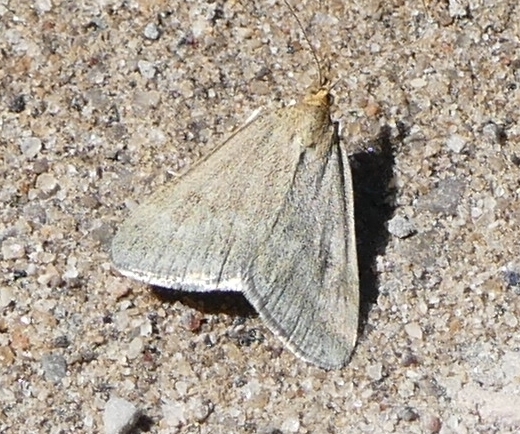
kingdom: Animalia
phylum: Arthropoda
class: Insecta
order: Lepidoptera
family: Crambidae
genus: Pyrausta
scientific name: Pyrausta unifascialis
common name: One-banded pyrausta
